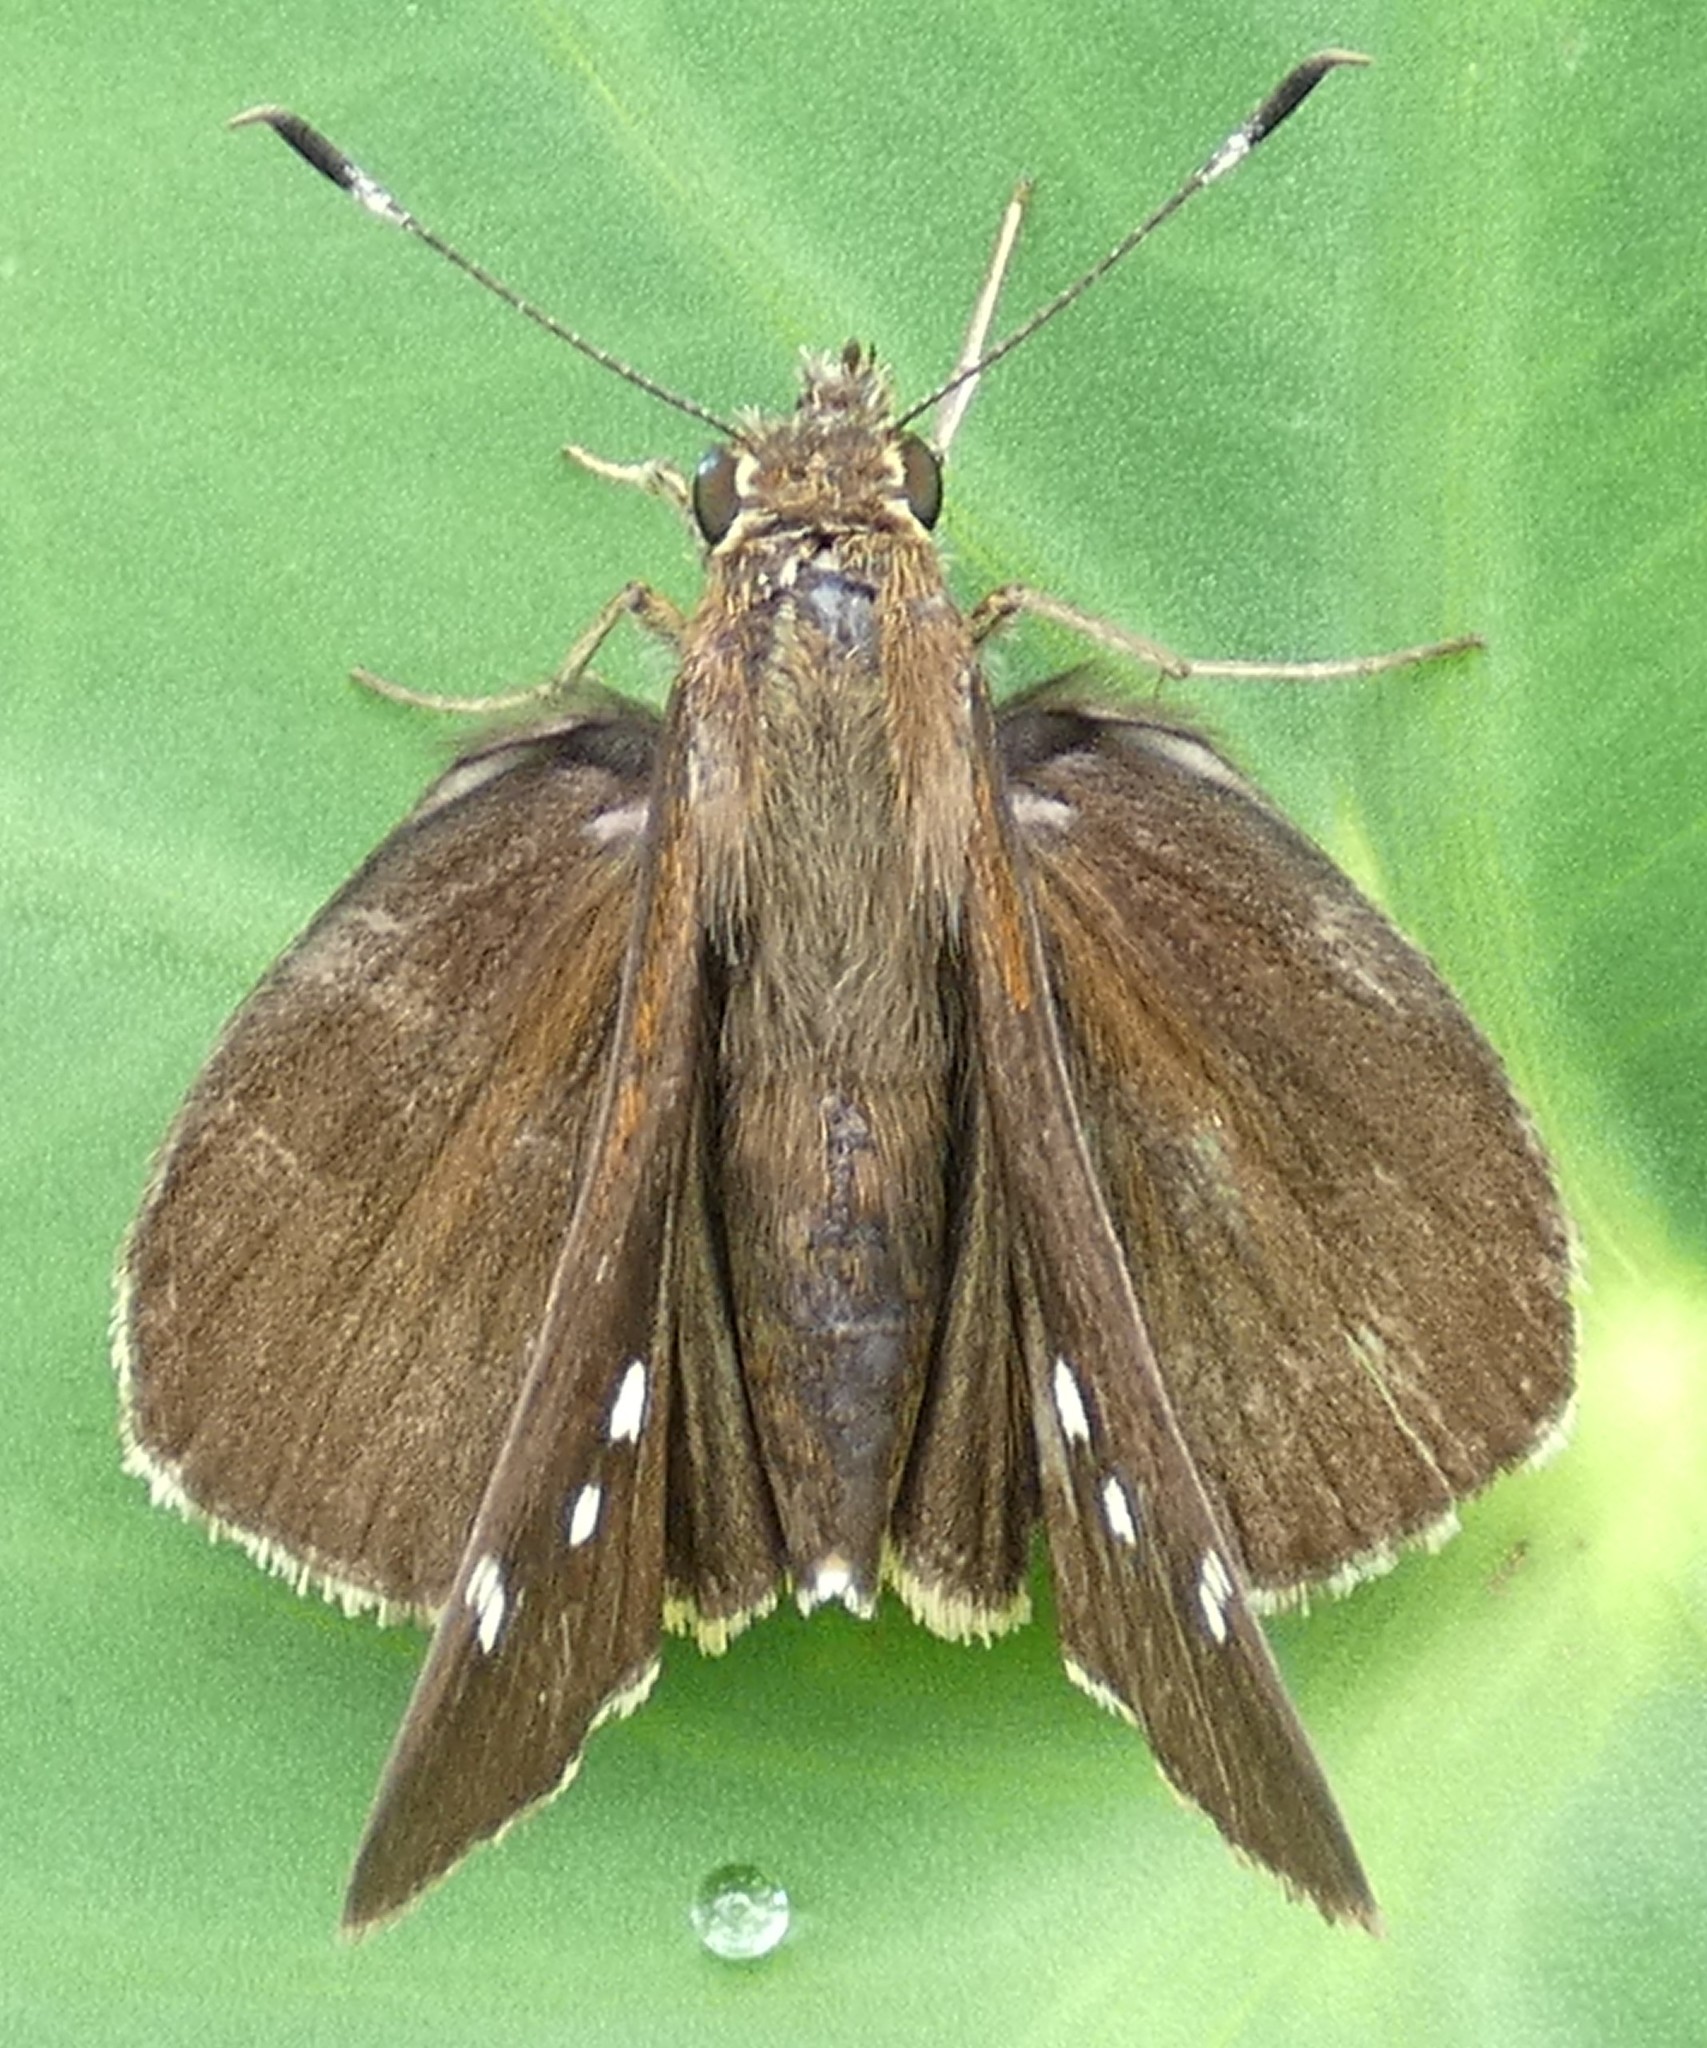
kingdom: Animalia
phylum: Arthropoda
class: Insecta
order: Lepidoptera
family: Hesperiidae
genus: Lerema
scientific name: Lerema accius
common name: Clouded skipper
